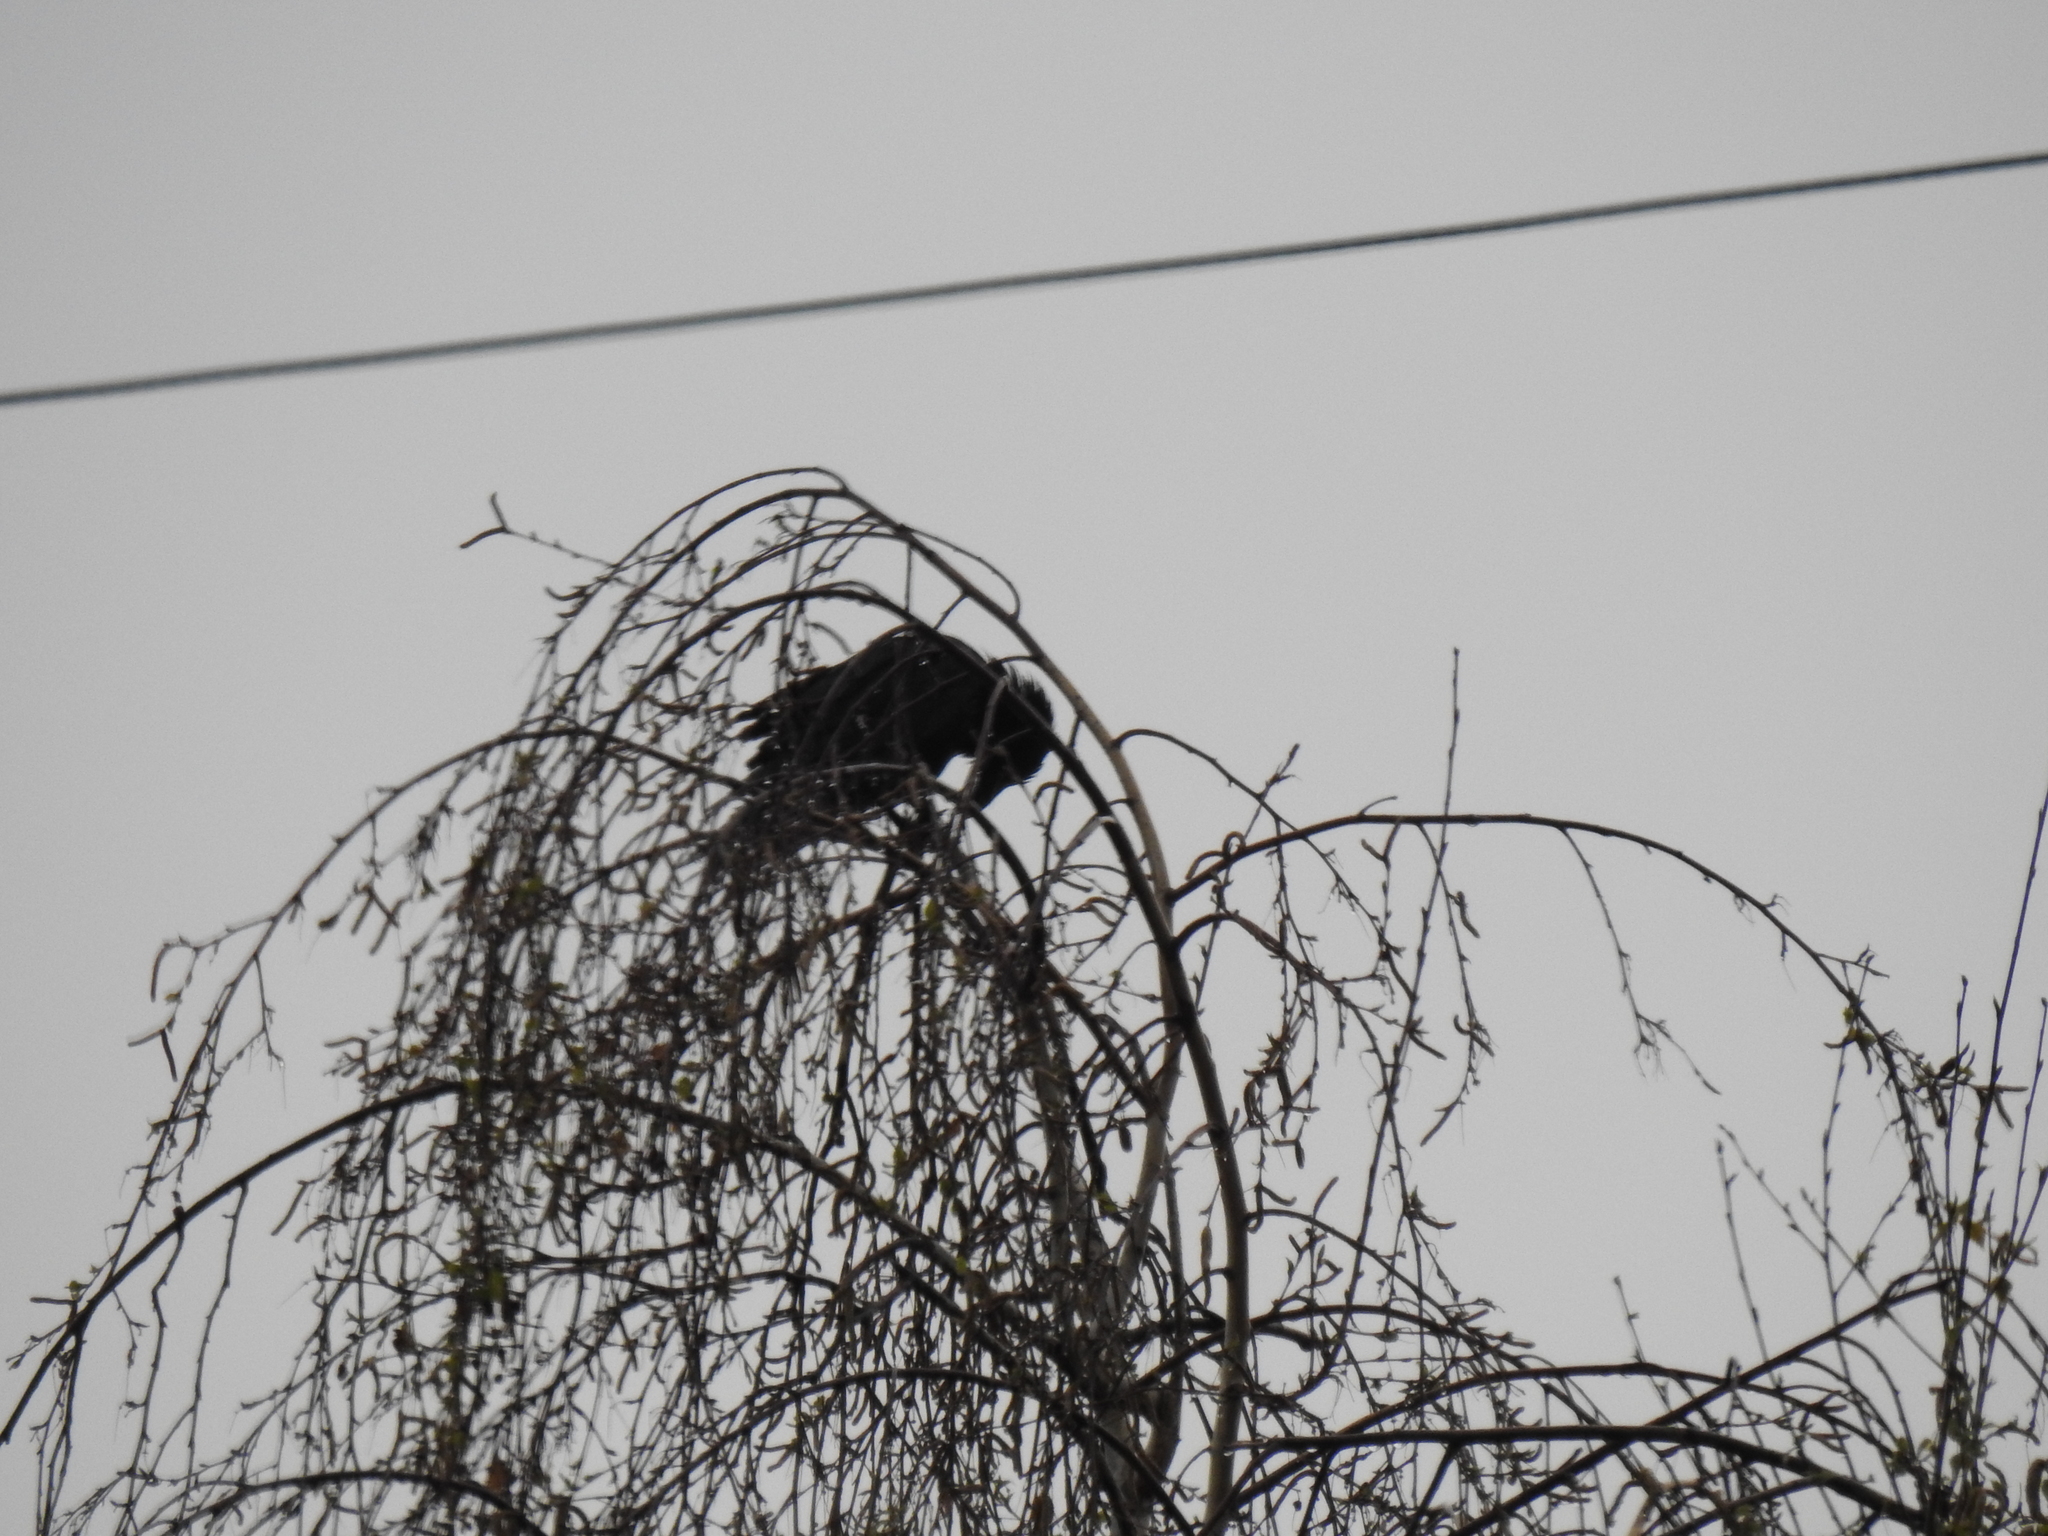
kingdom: Animalia
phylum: Chordata
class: Aves
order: Passeriformes
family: Corvidae
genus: Corvus
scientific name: Corvus brachyrhynchos
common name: American crow
